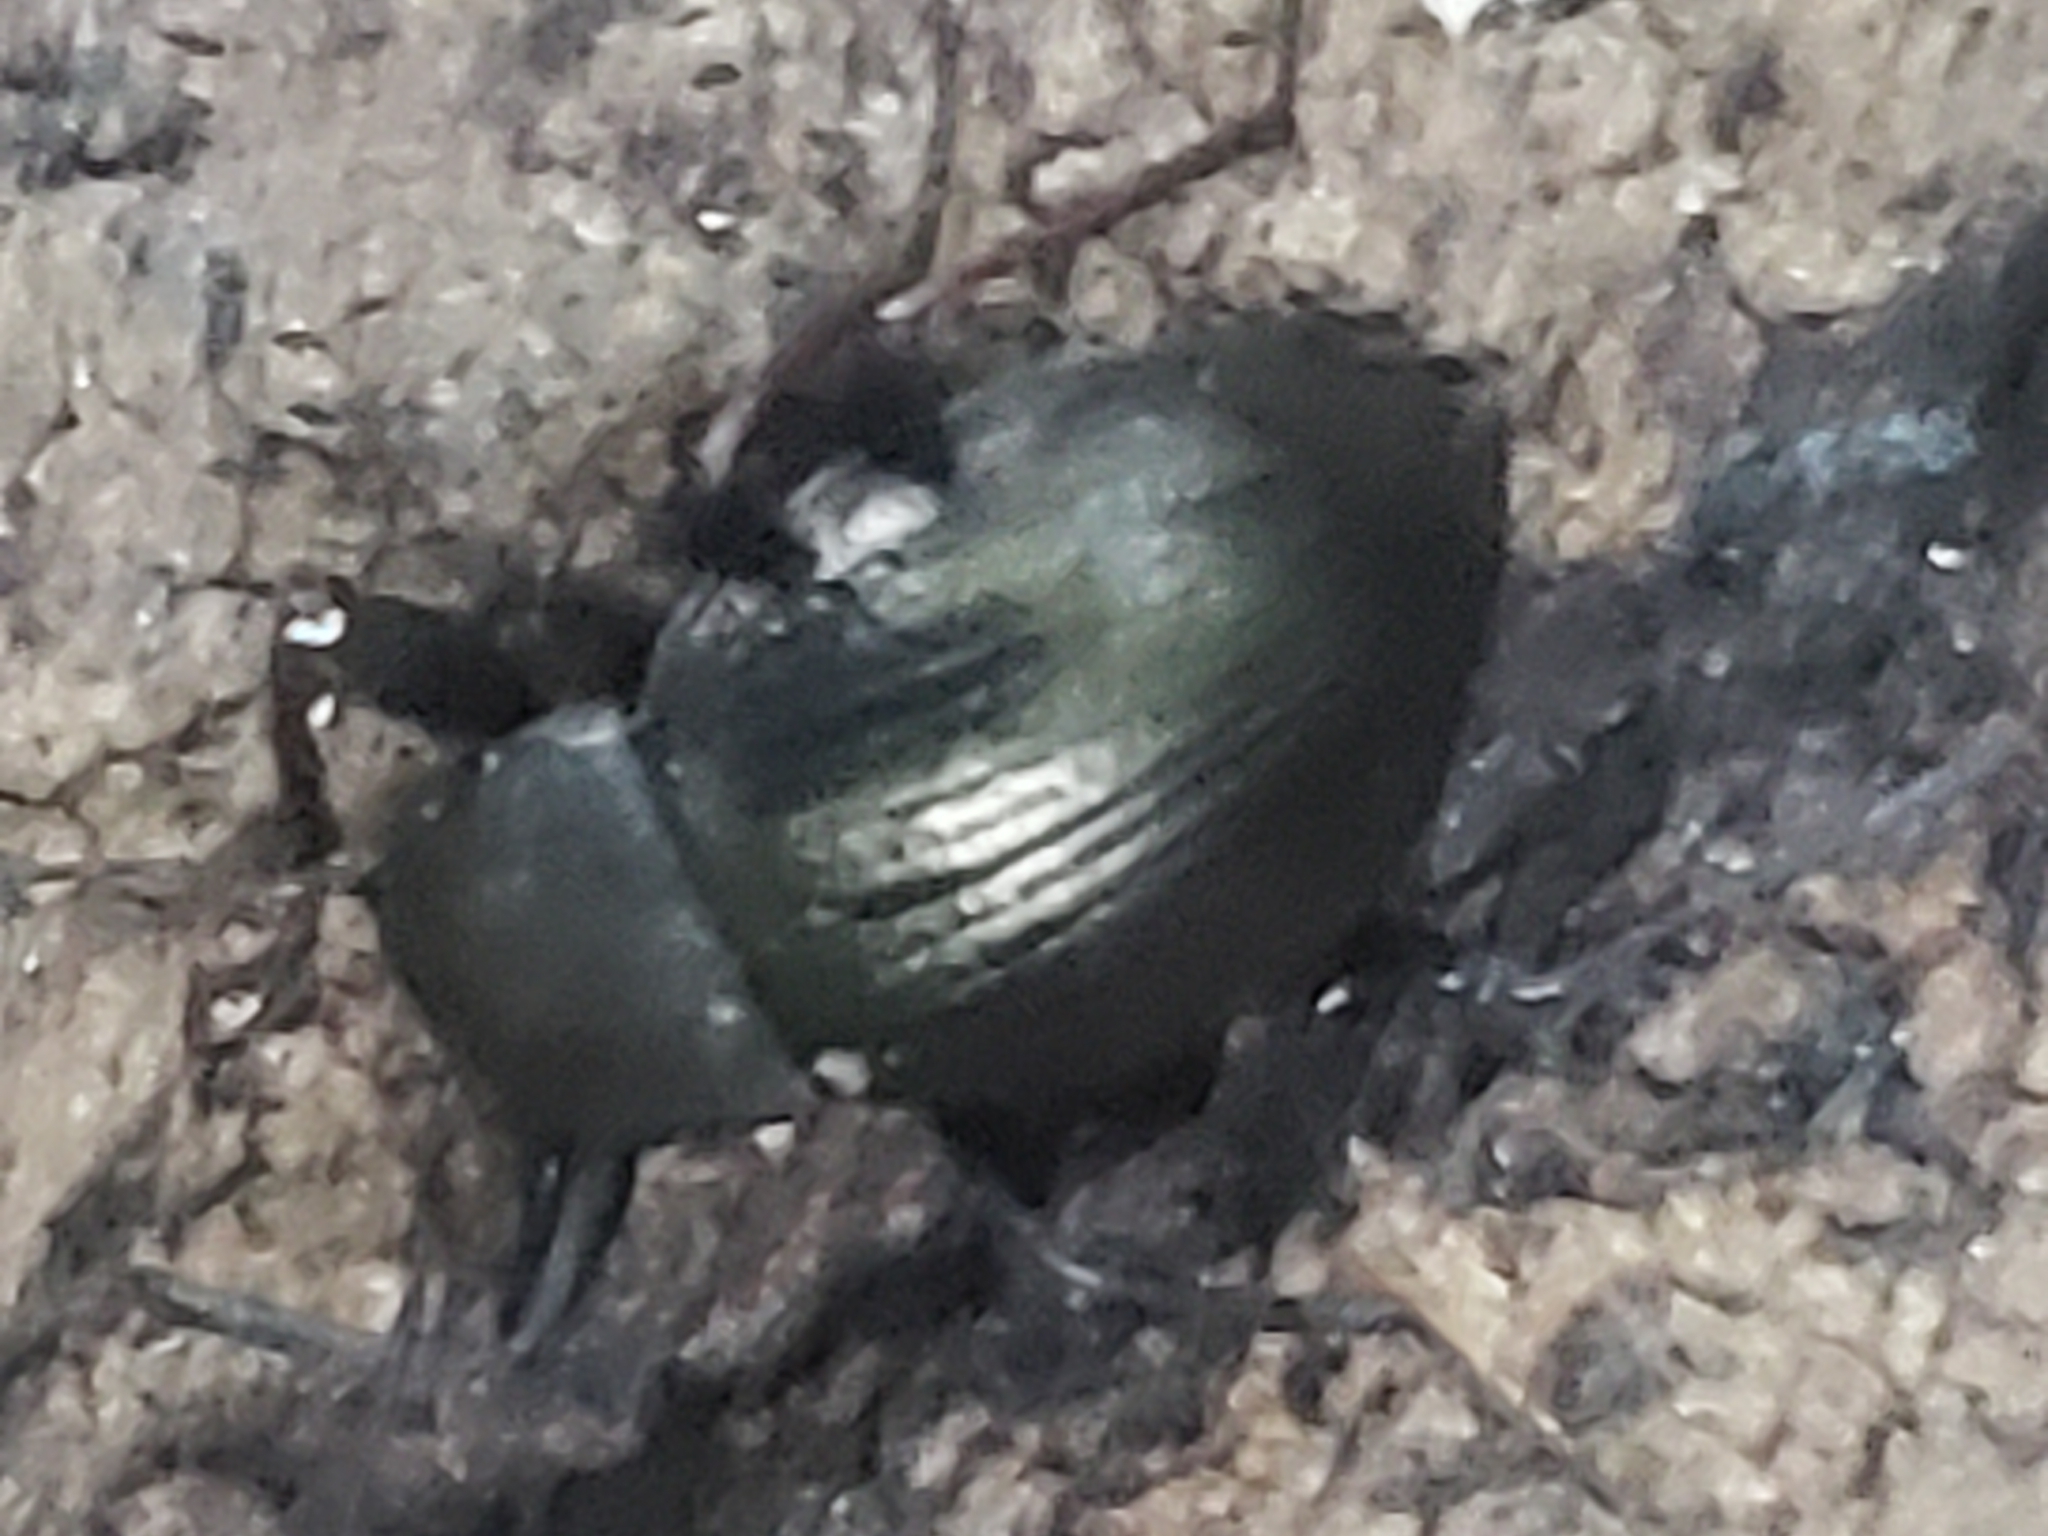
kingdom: Animalia
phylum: Arthropoda
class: Insecta
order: Coleoptera
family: Tenebrionidae
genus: Meracantha
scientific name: Meracantha contracta
